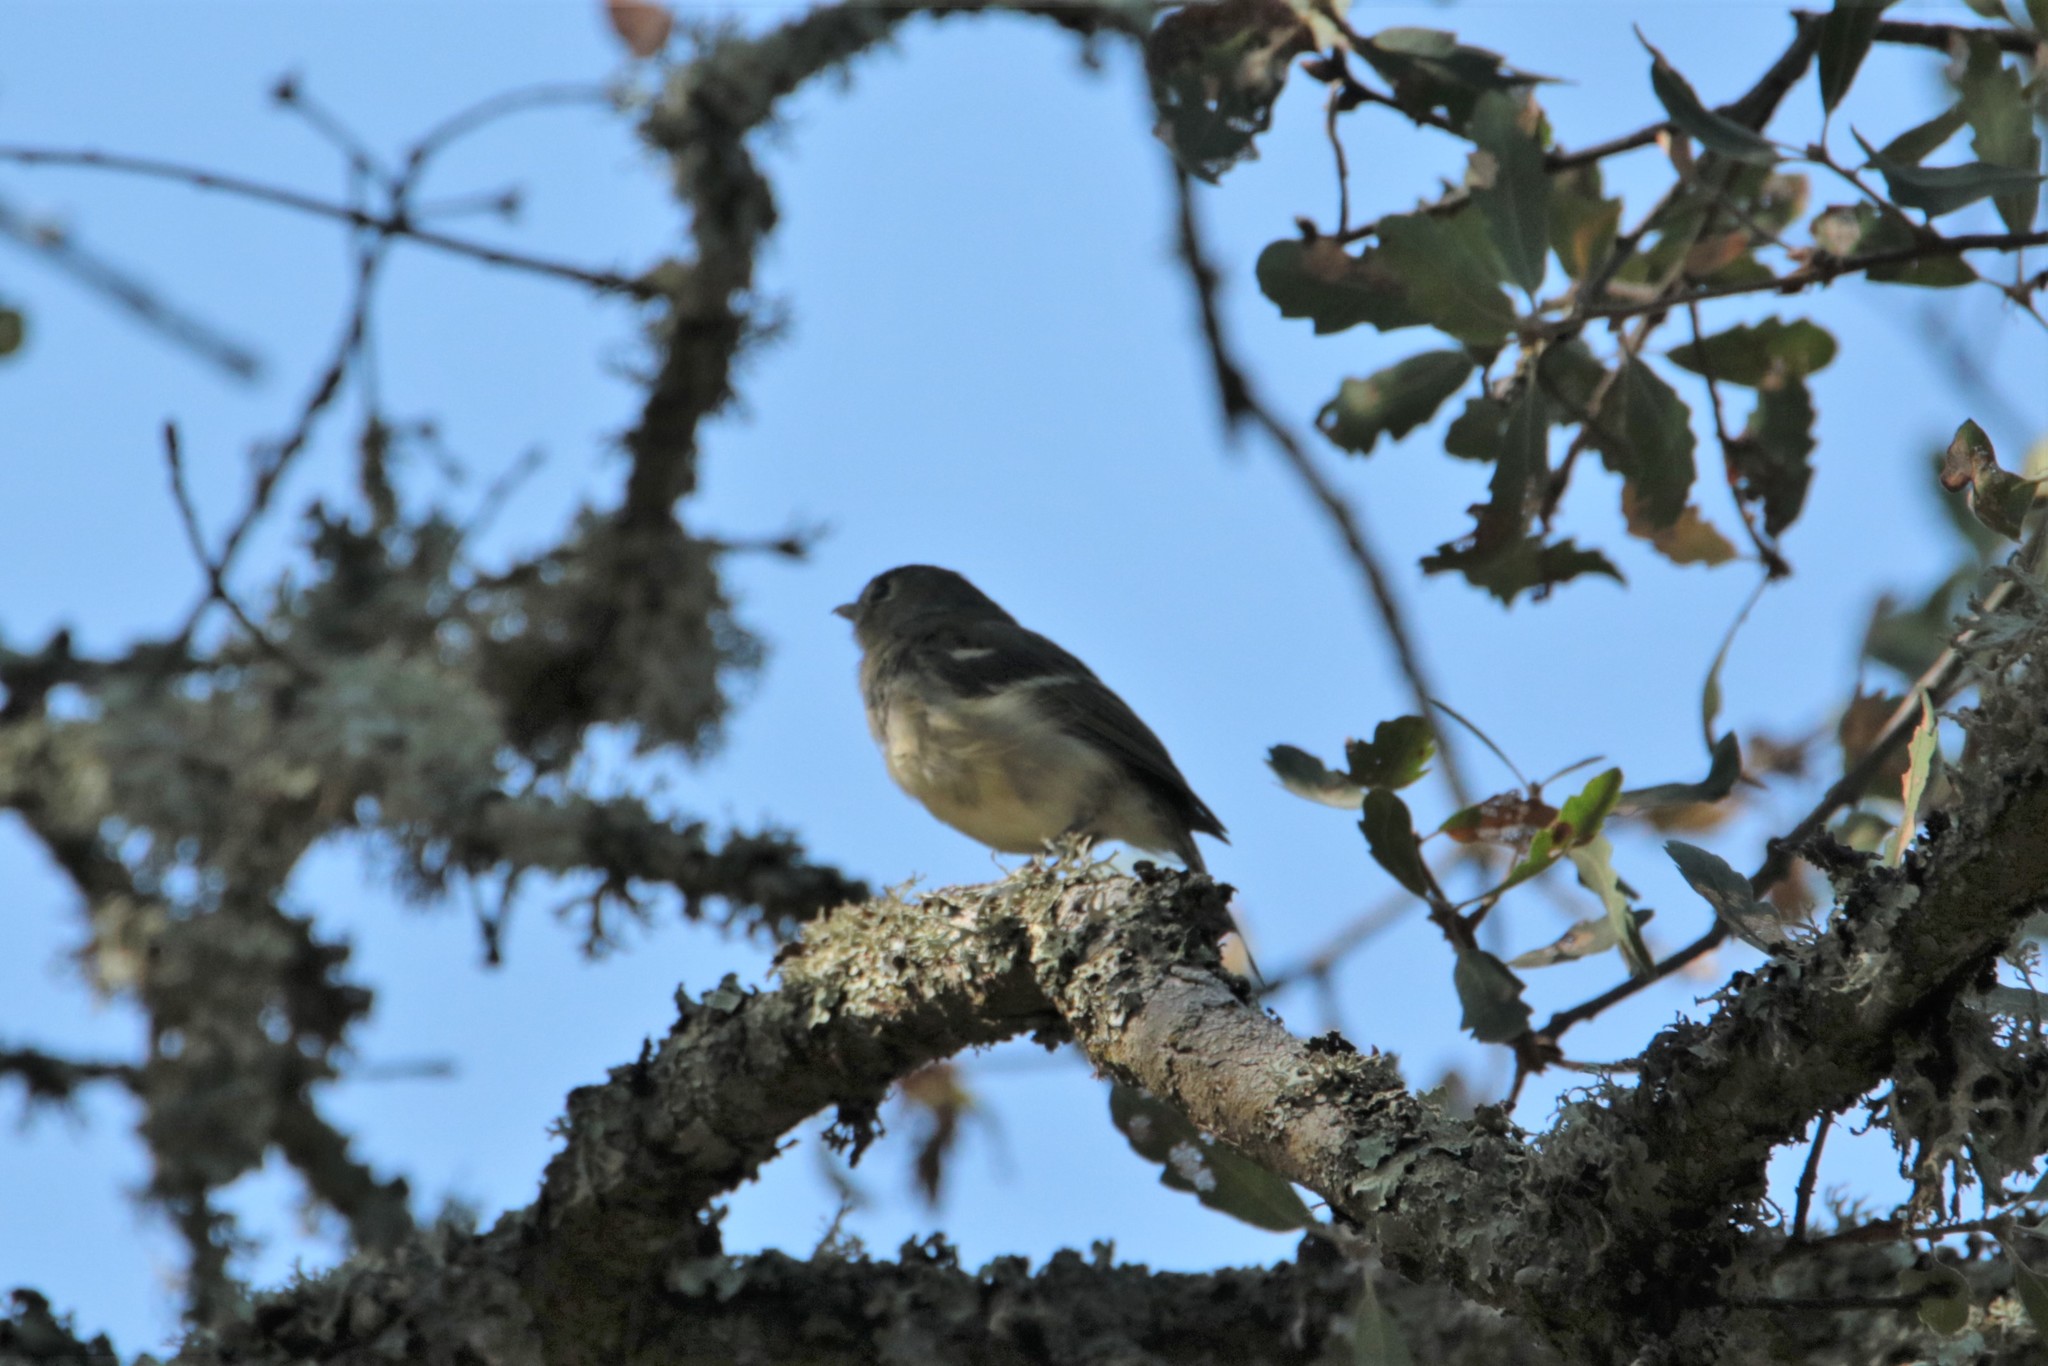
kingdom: Animalia
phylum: Chordata
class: Aves
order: Passeriformes
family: Vireonidae
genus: Vireo
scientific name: Vireo huttoni
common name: Hutton's vireo
